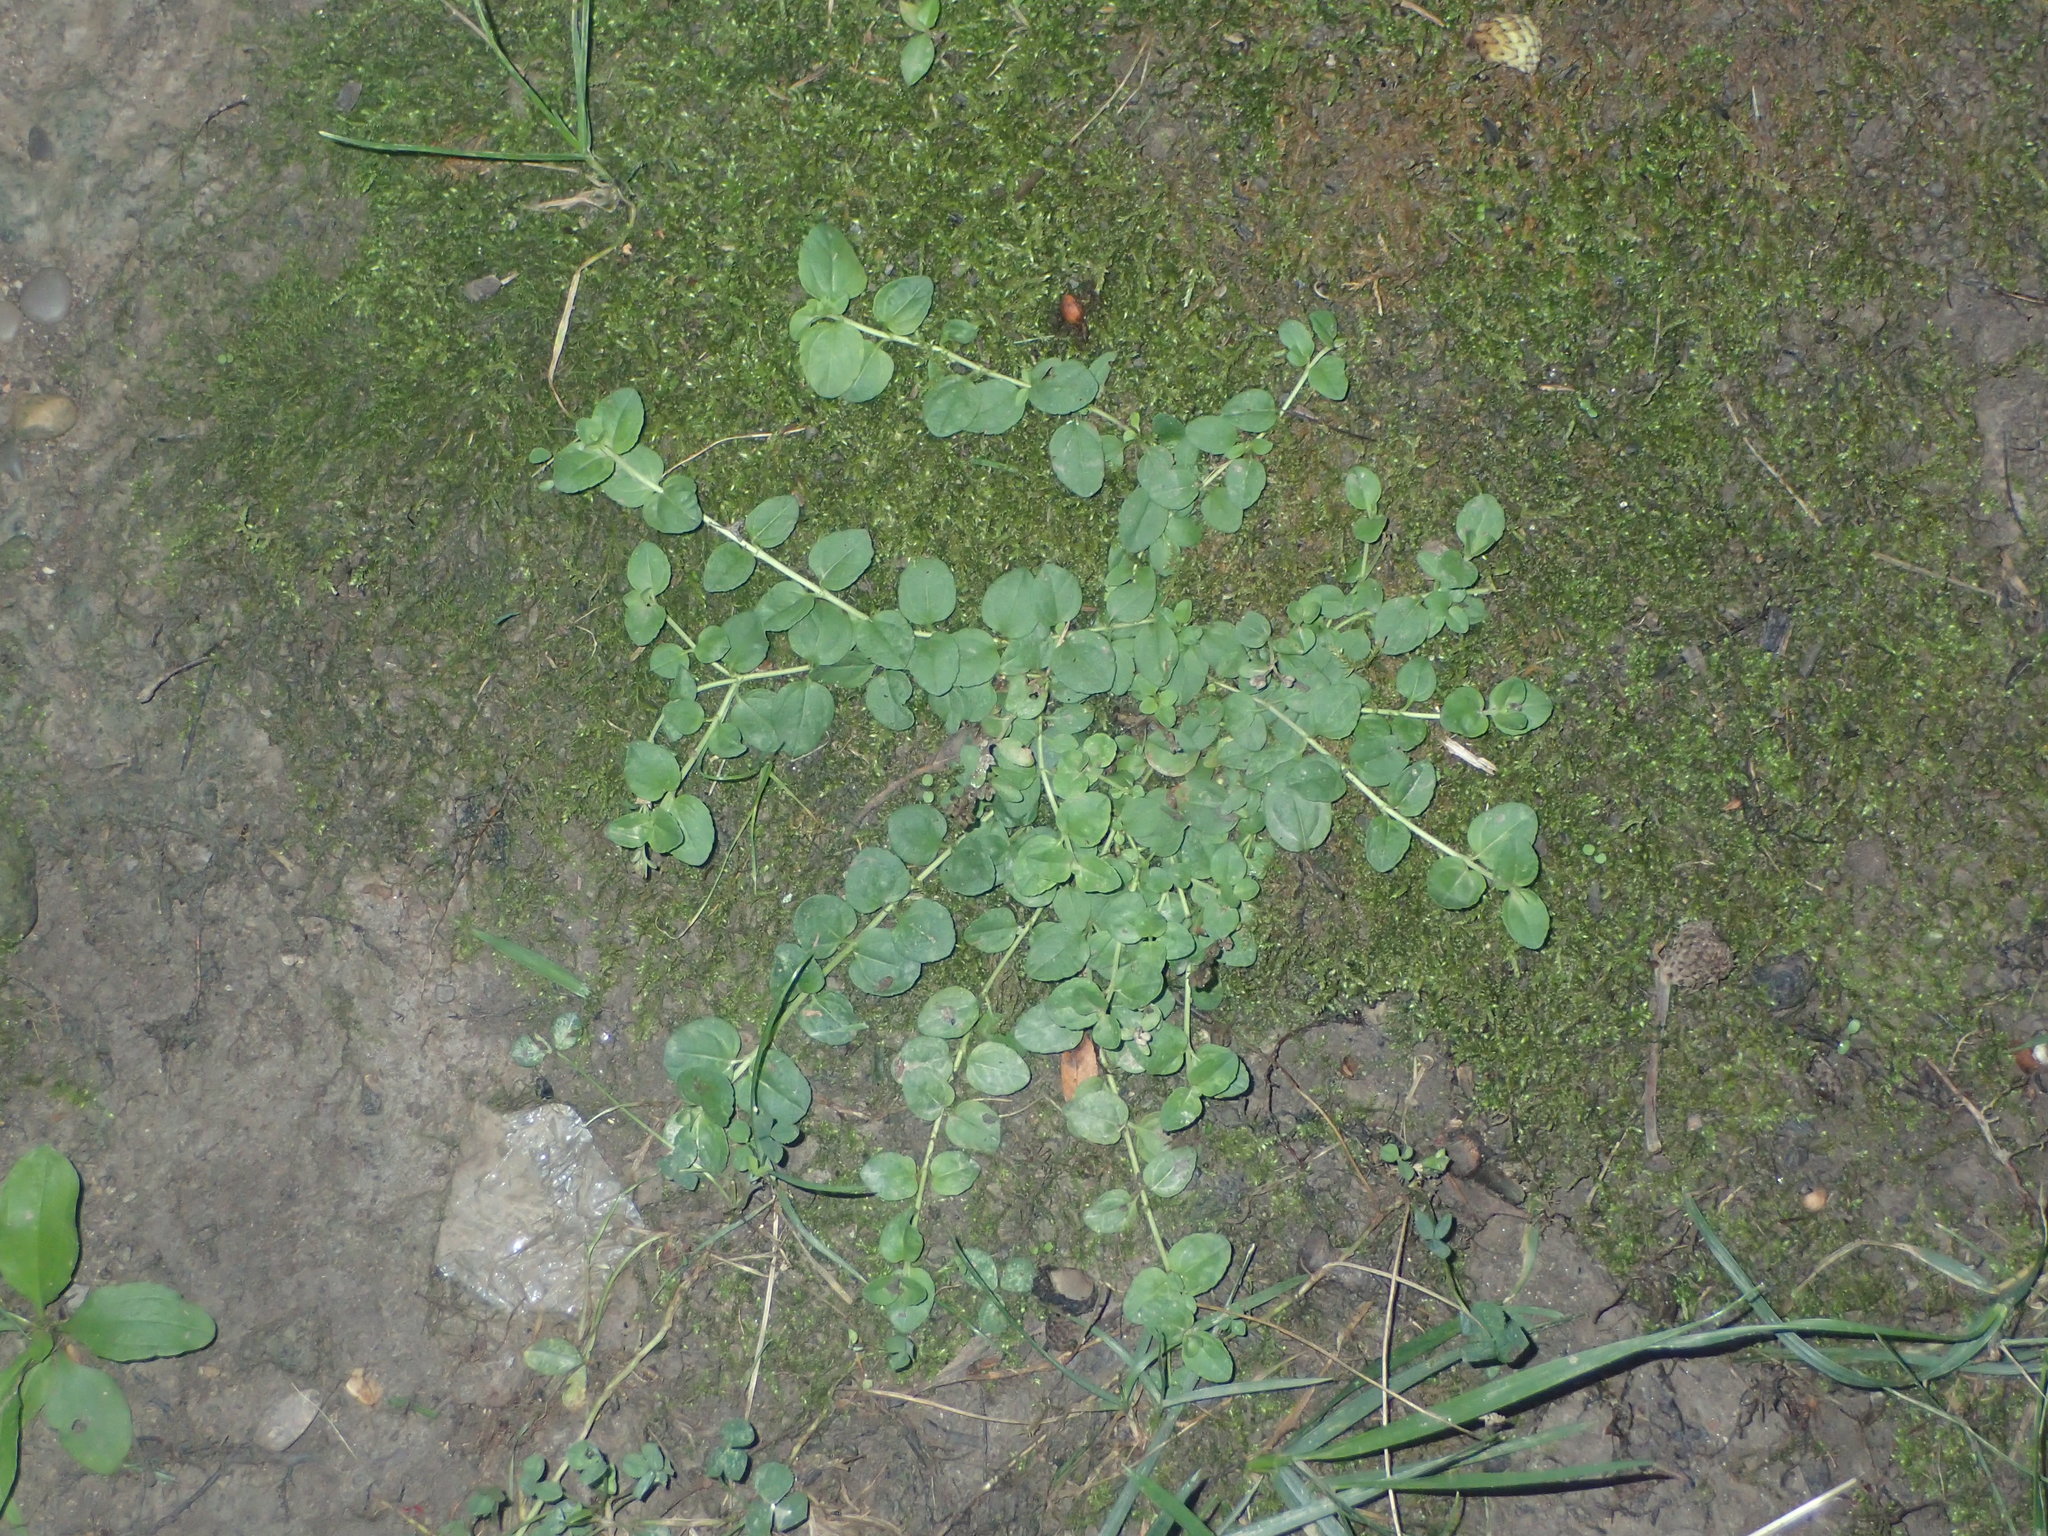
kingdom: Plantae
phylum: Tracheophyta
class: Magnoliopsida
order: Ericales
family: Primulaceae
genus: Lysimachia
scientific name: Lysimachia nummularia
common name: Moneywort
